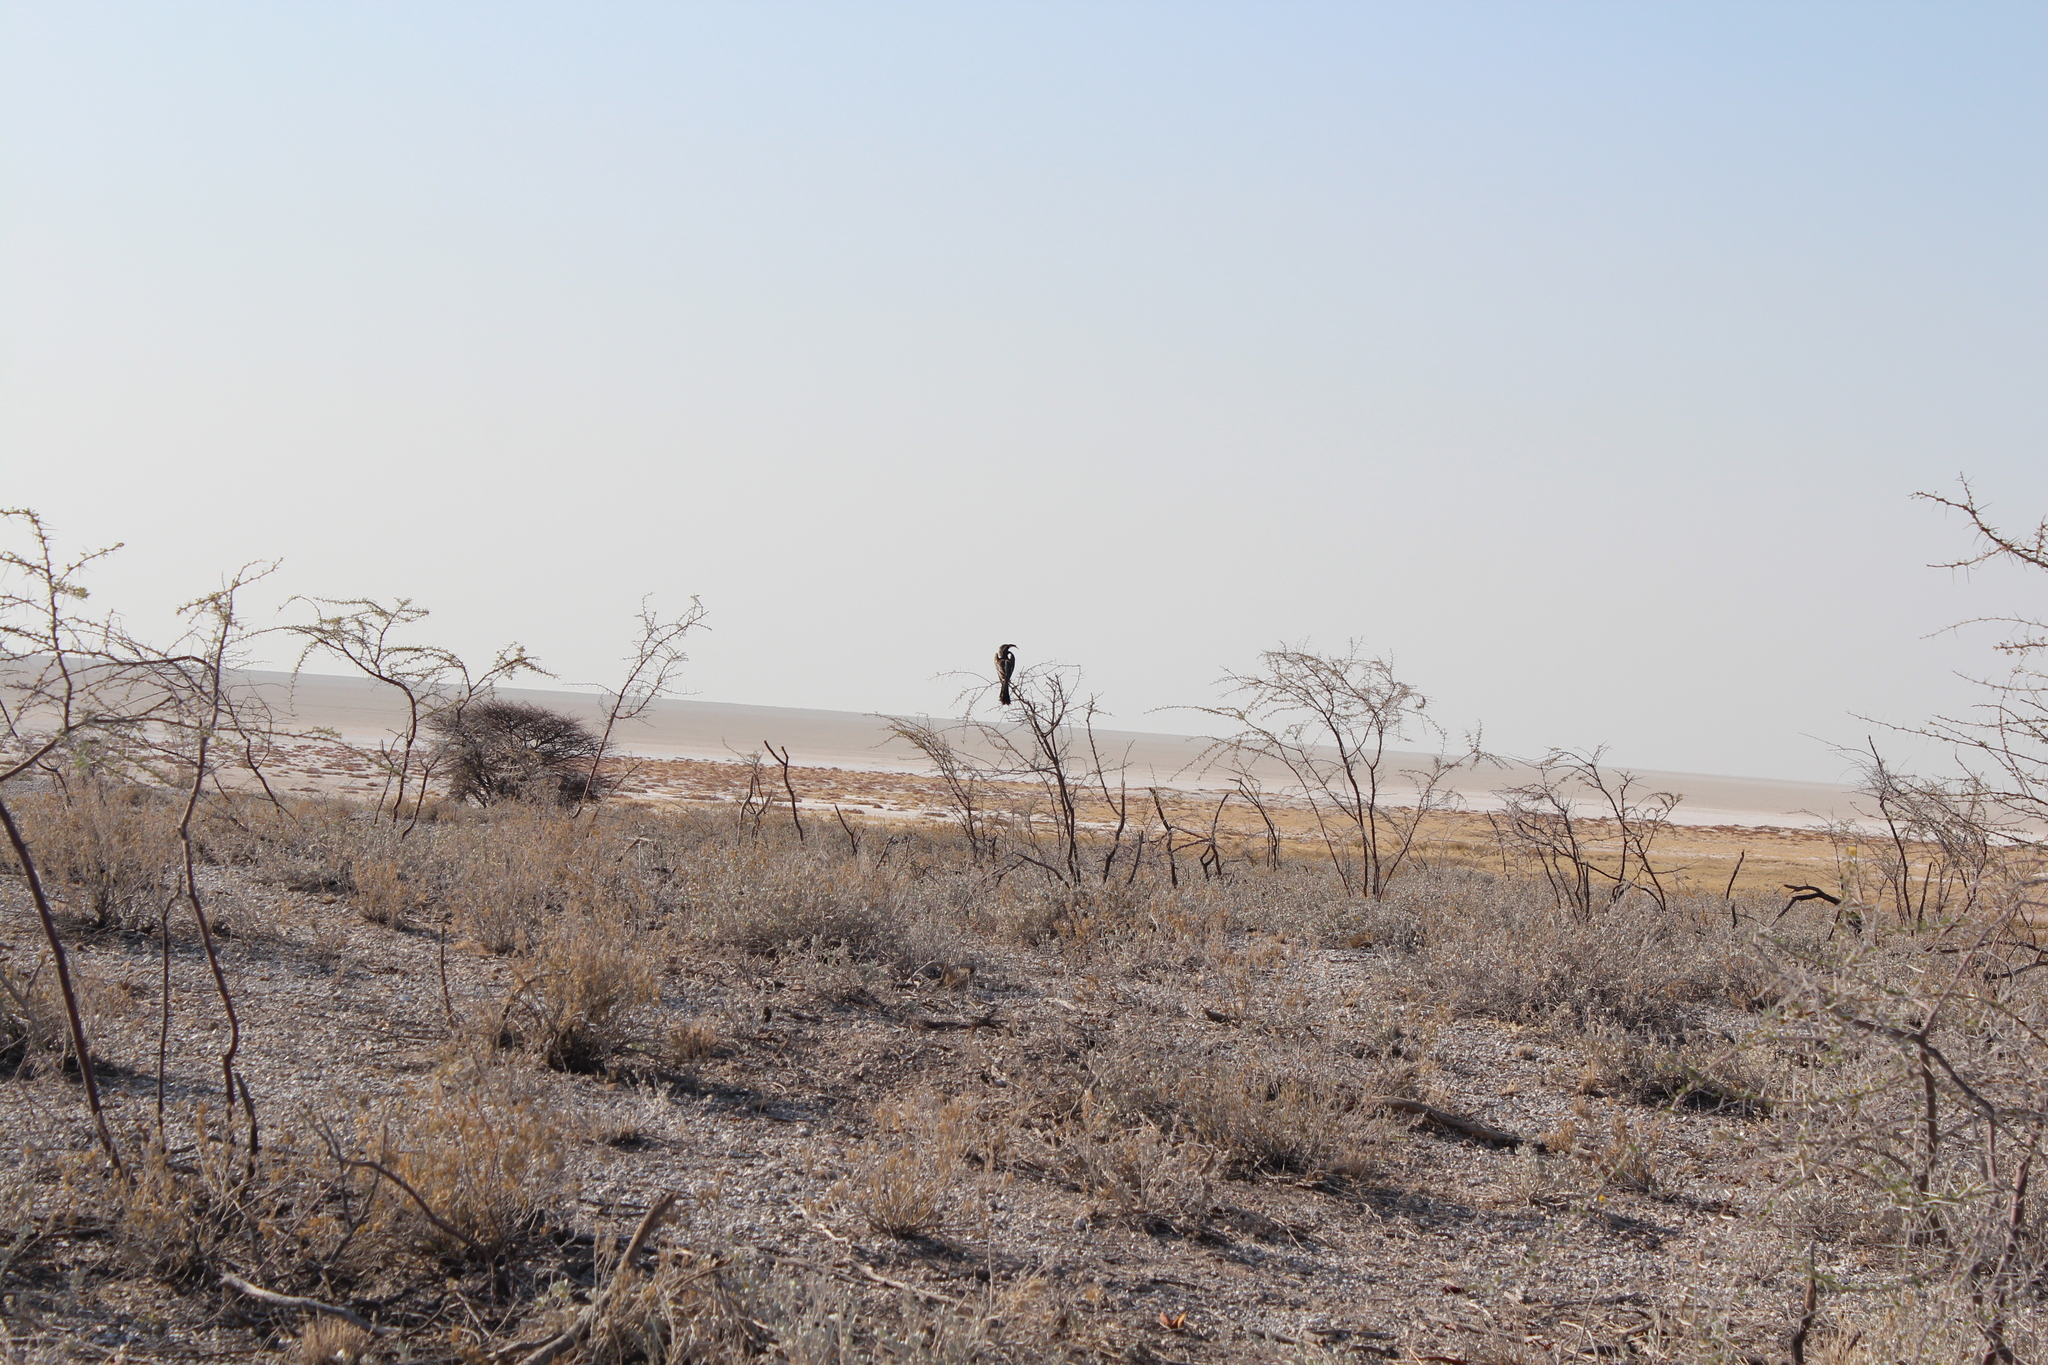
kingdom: Animalia
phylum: Chordata
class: Aves
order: Bucerotiformes
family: Bucerotidae
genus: Lophoceros
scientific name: Lophoceros nasutus
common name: African grey hornbill
